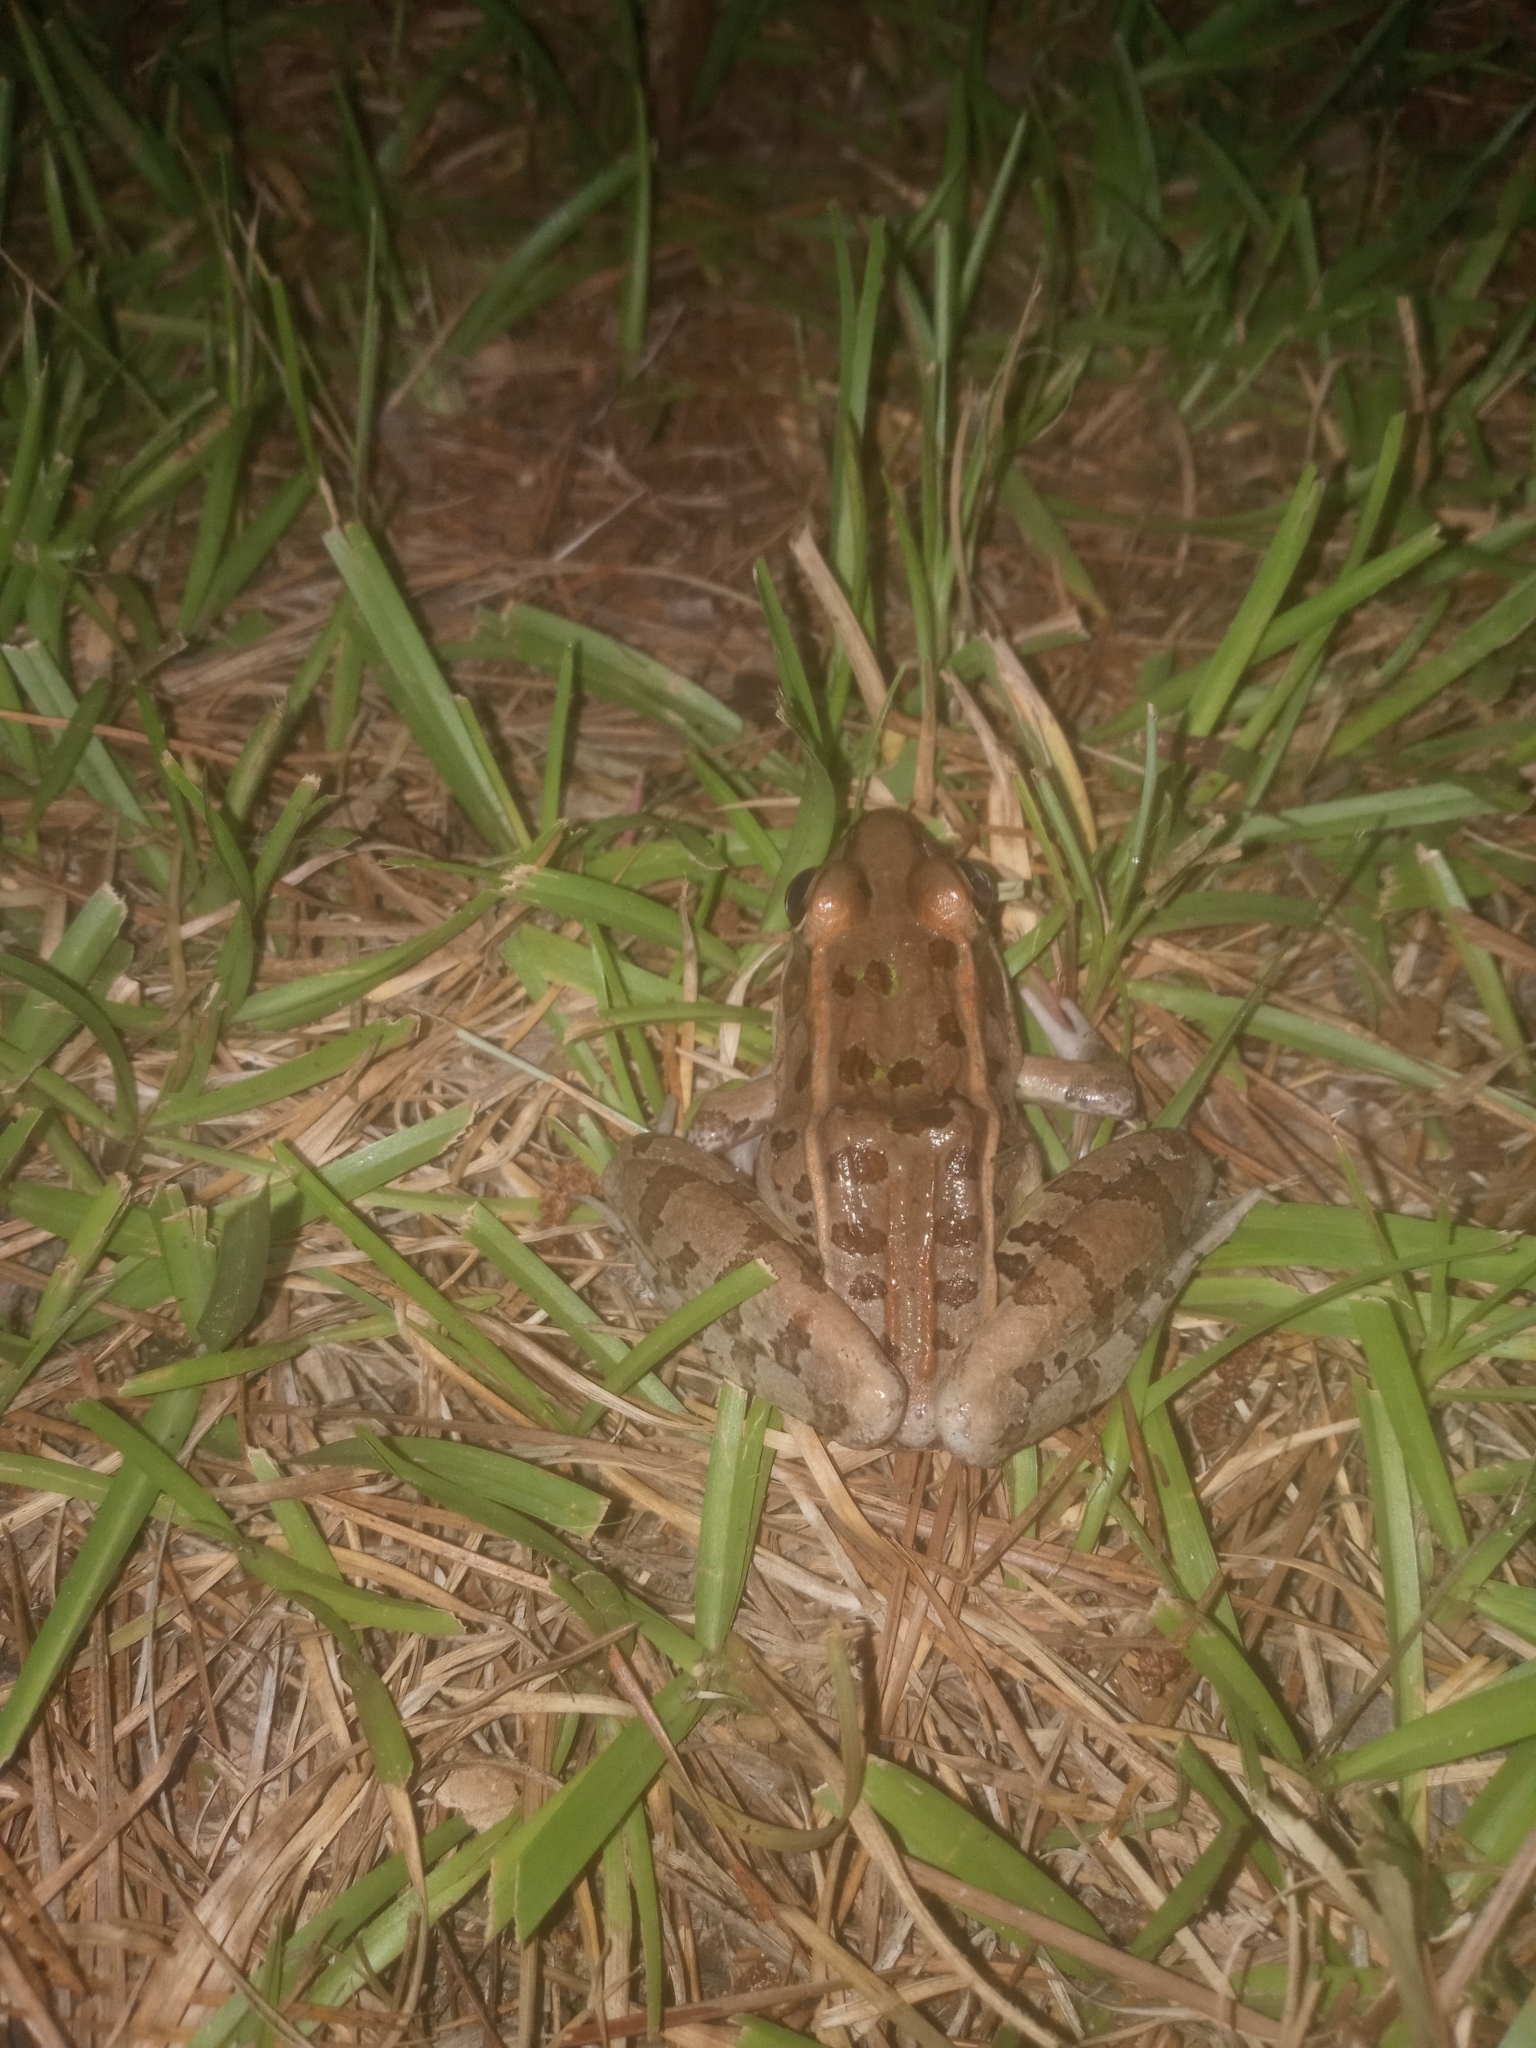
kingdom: Animalia
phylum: Chordata
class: Amphibia
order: Anura
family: Ranidae
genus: Lithobates
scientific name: Lithobates sphenocephalus
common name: Southern leopard frog
